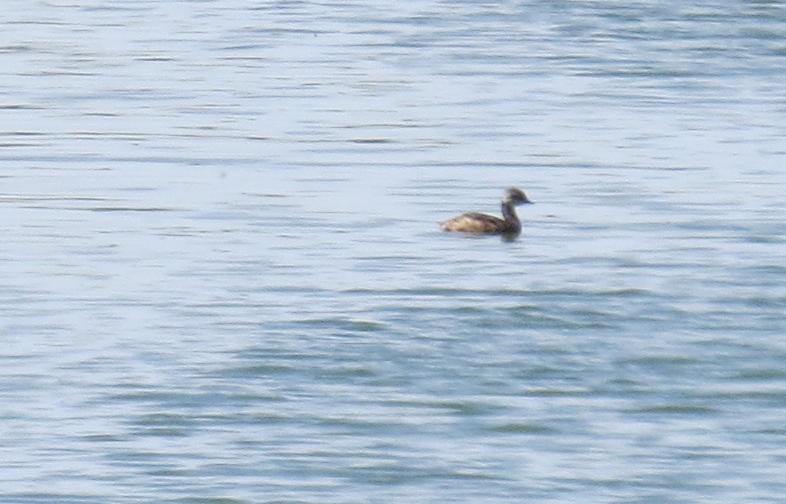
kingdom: Animalia
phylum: Chordata
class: Aves
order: Podicipediformes
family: Podicipedidae
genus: Rollandia
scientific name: Rollandia rolland
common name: White-tufted grebe
